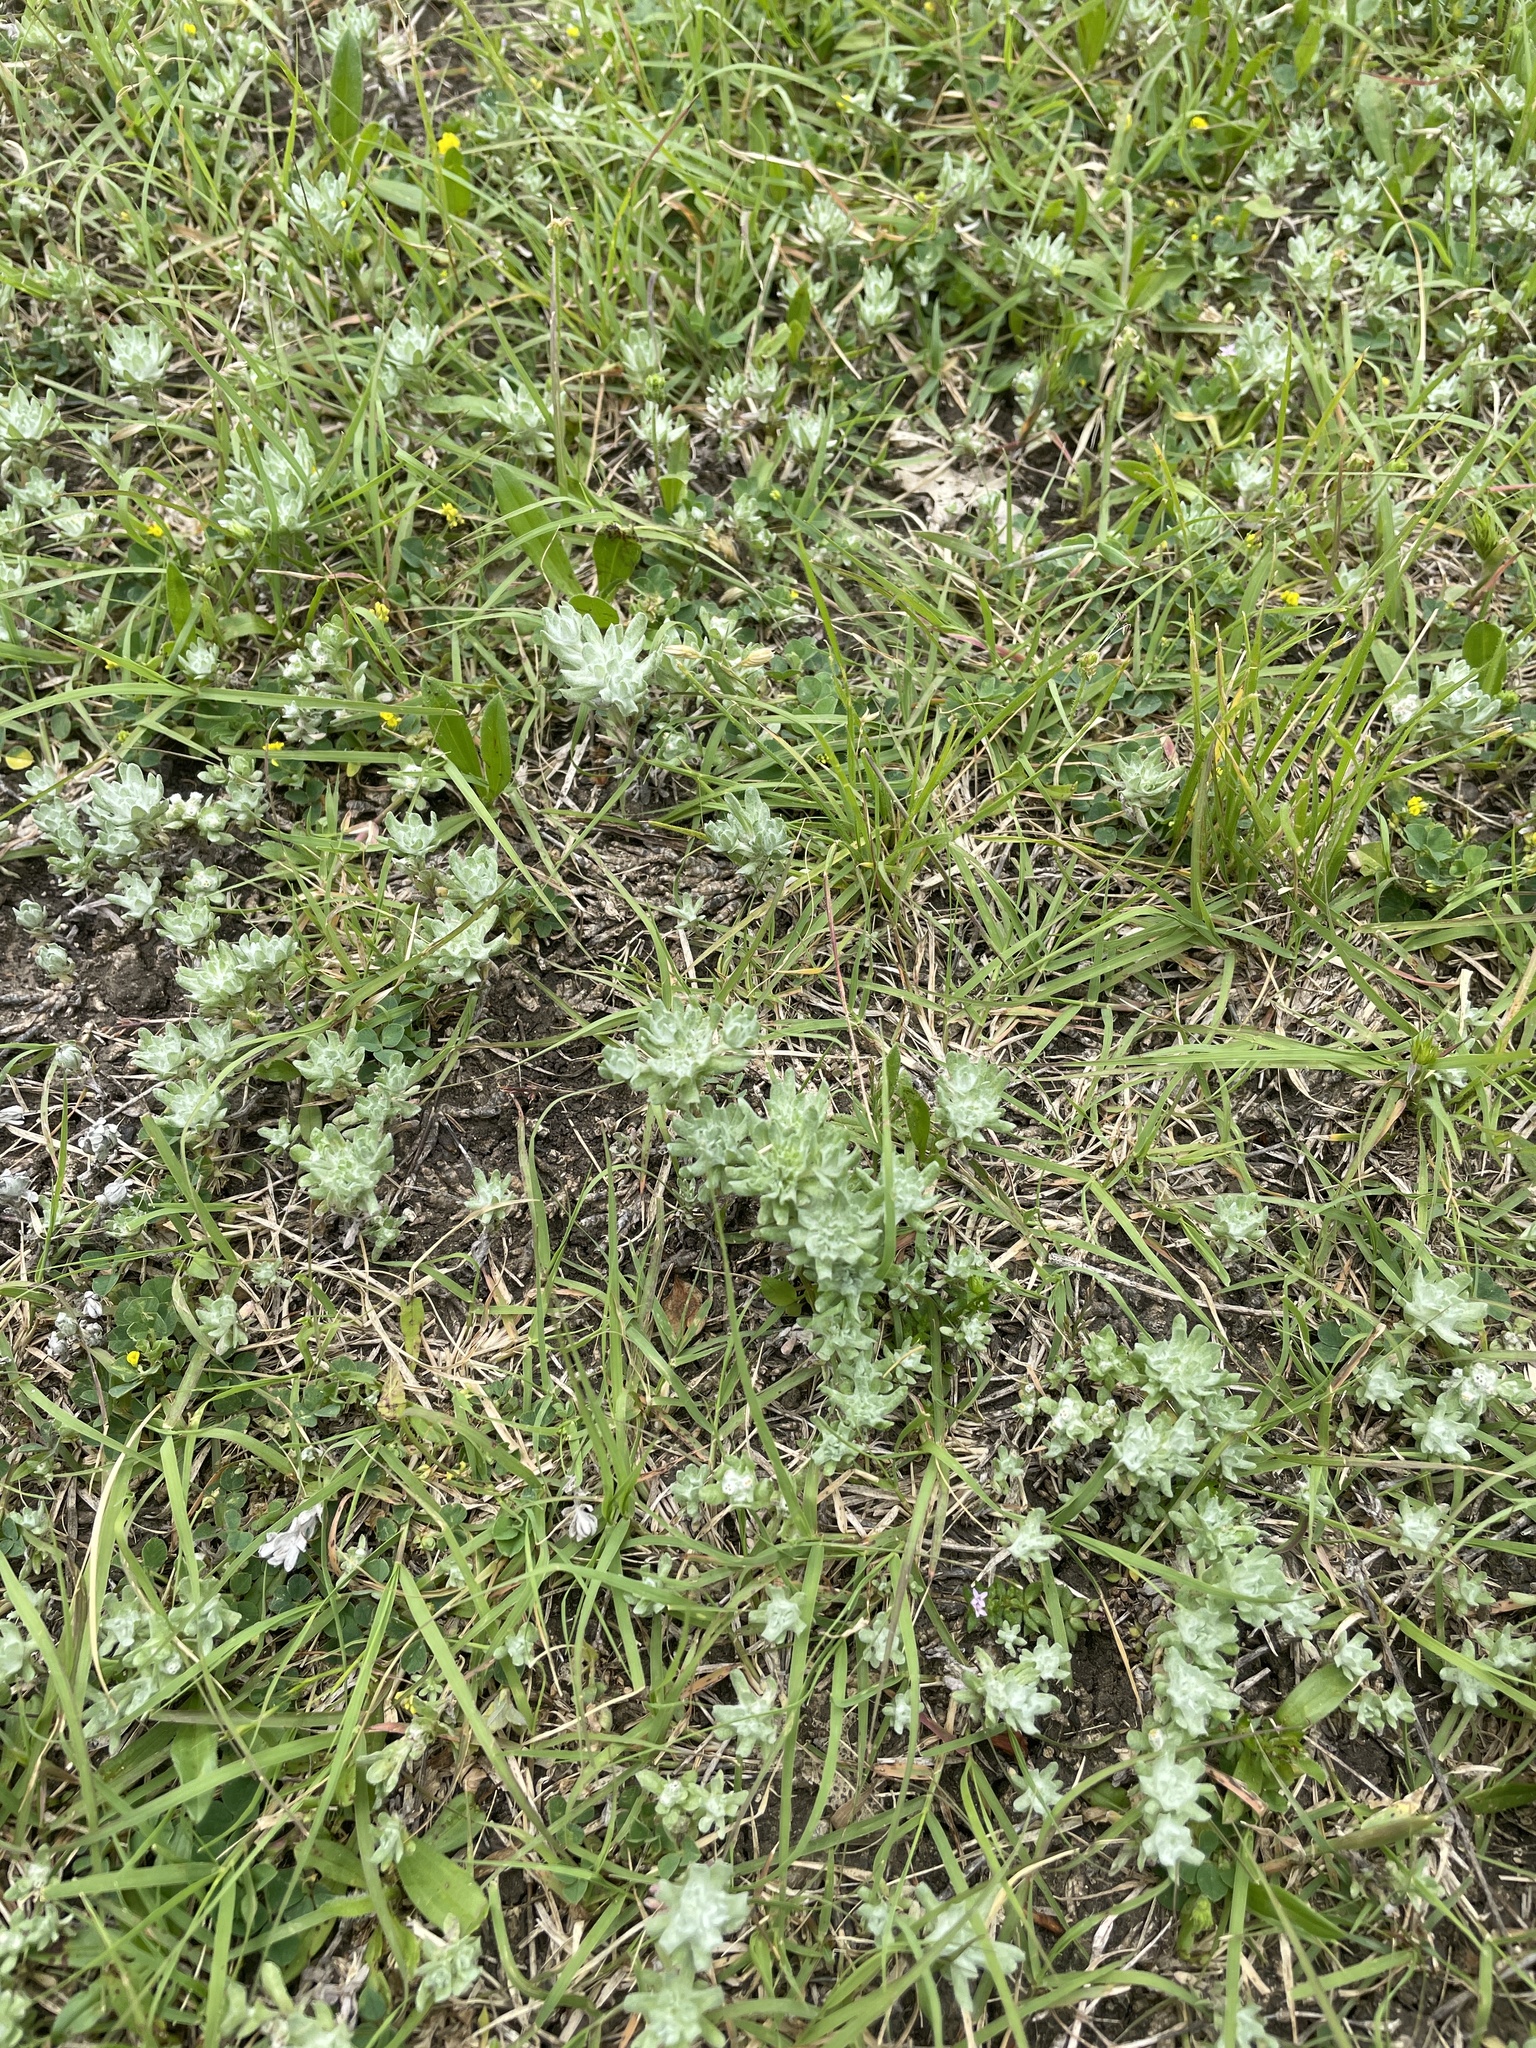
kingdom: Plantae
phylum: Tracheophyta
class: Magnoliopsida
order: Asterales
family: Asteraceae
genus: Diaperia
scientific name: Diaperia prolifera
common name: Big-head rabbit-tobacco
